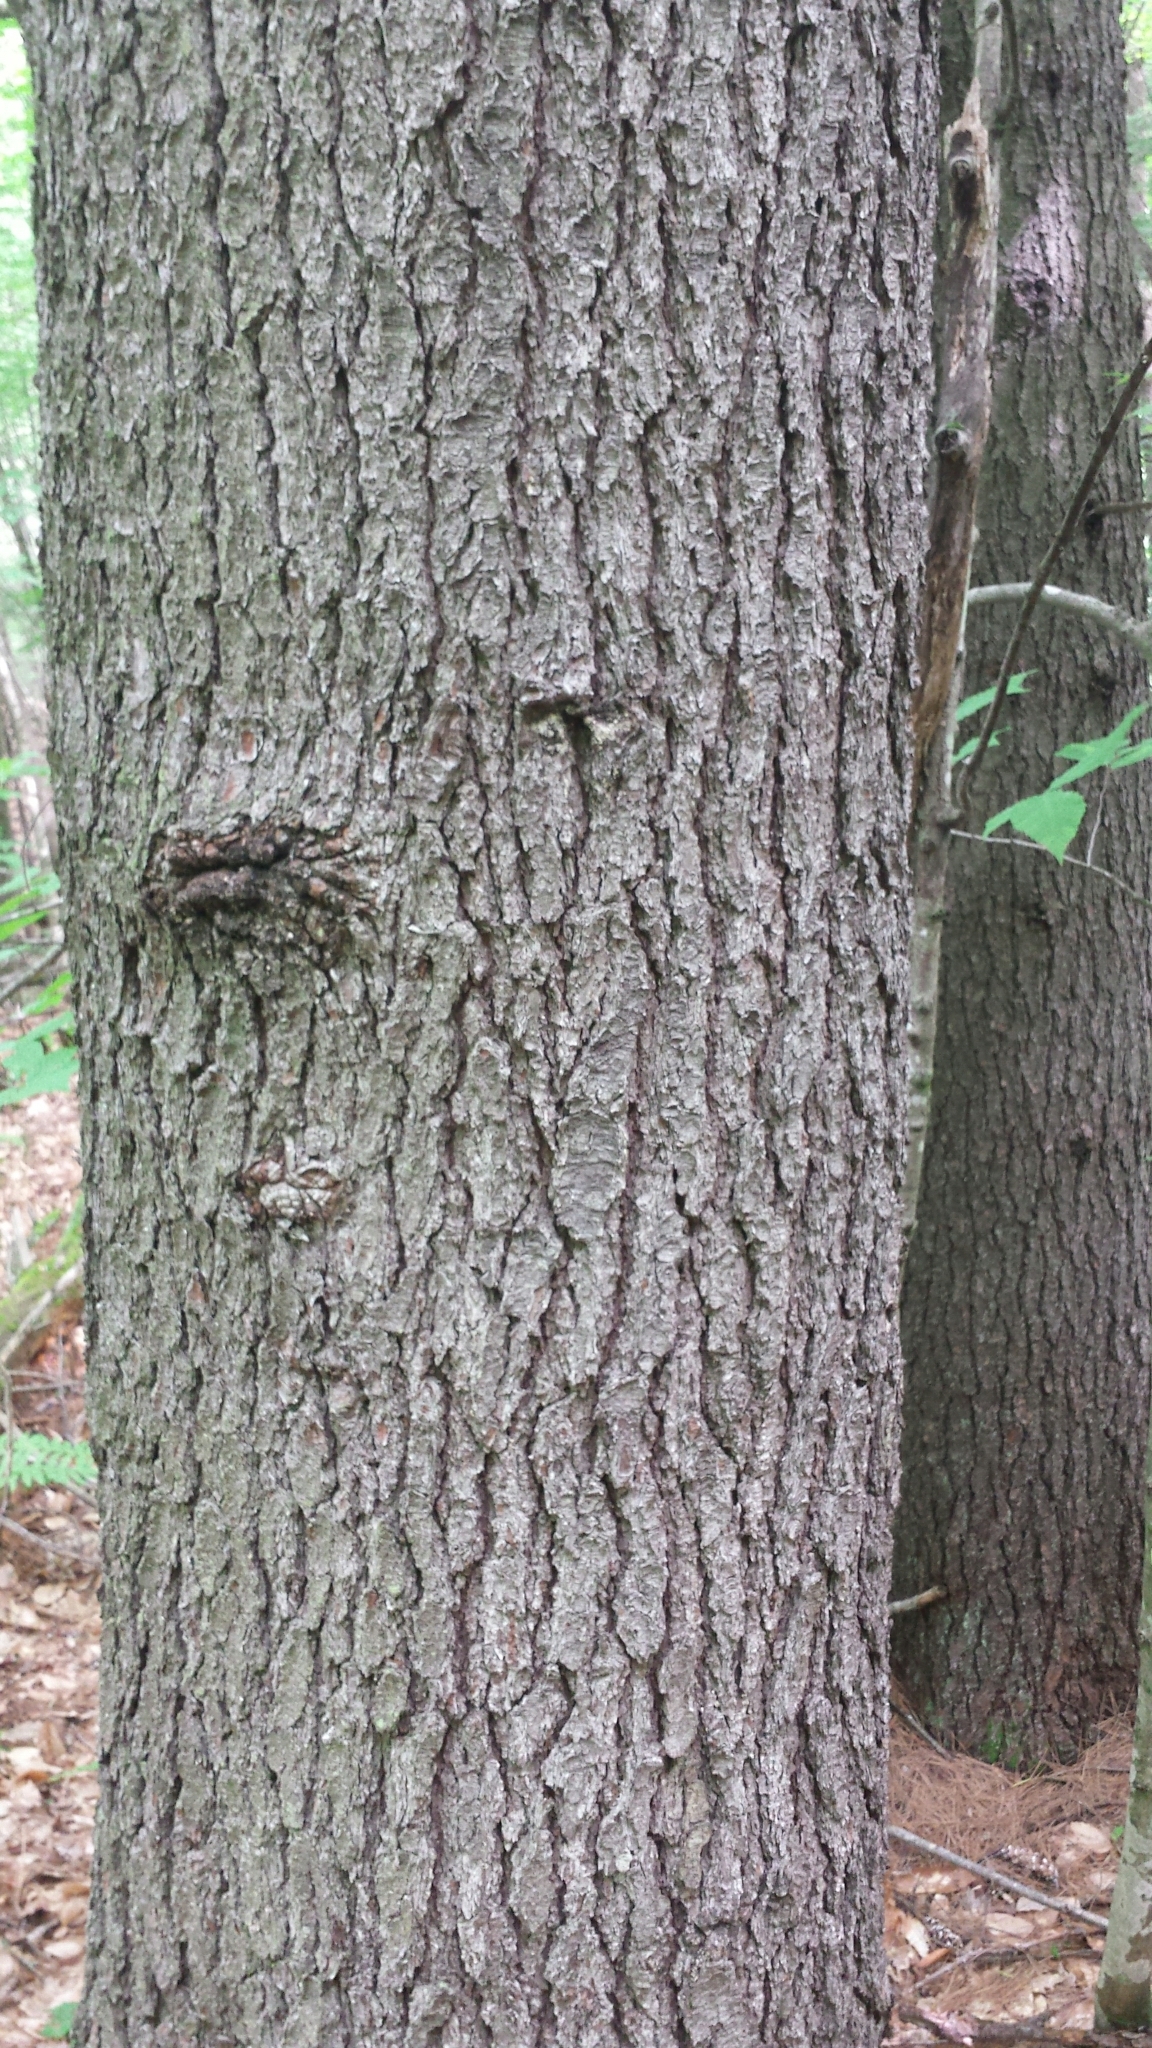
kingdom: Plantae
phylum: Tracheophyta
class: Pinopsida
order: Pinales
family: Pinaceae
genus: Pinus
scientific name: Pinus strobus
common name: Weymouth pine
